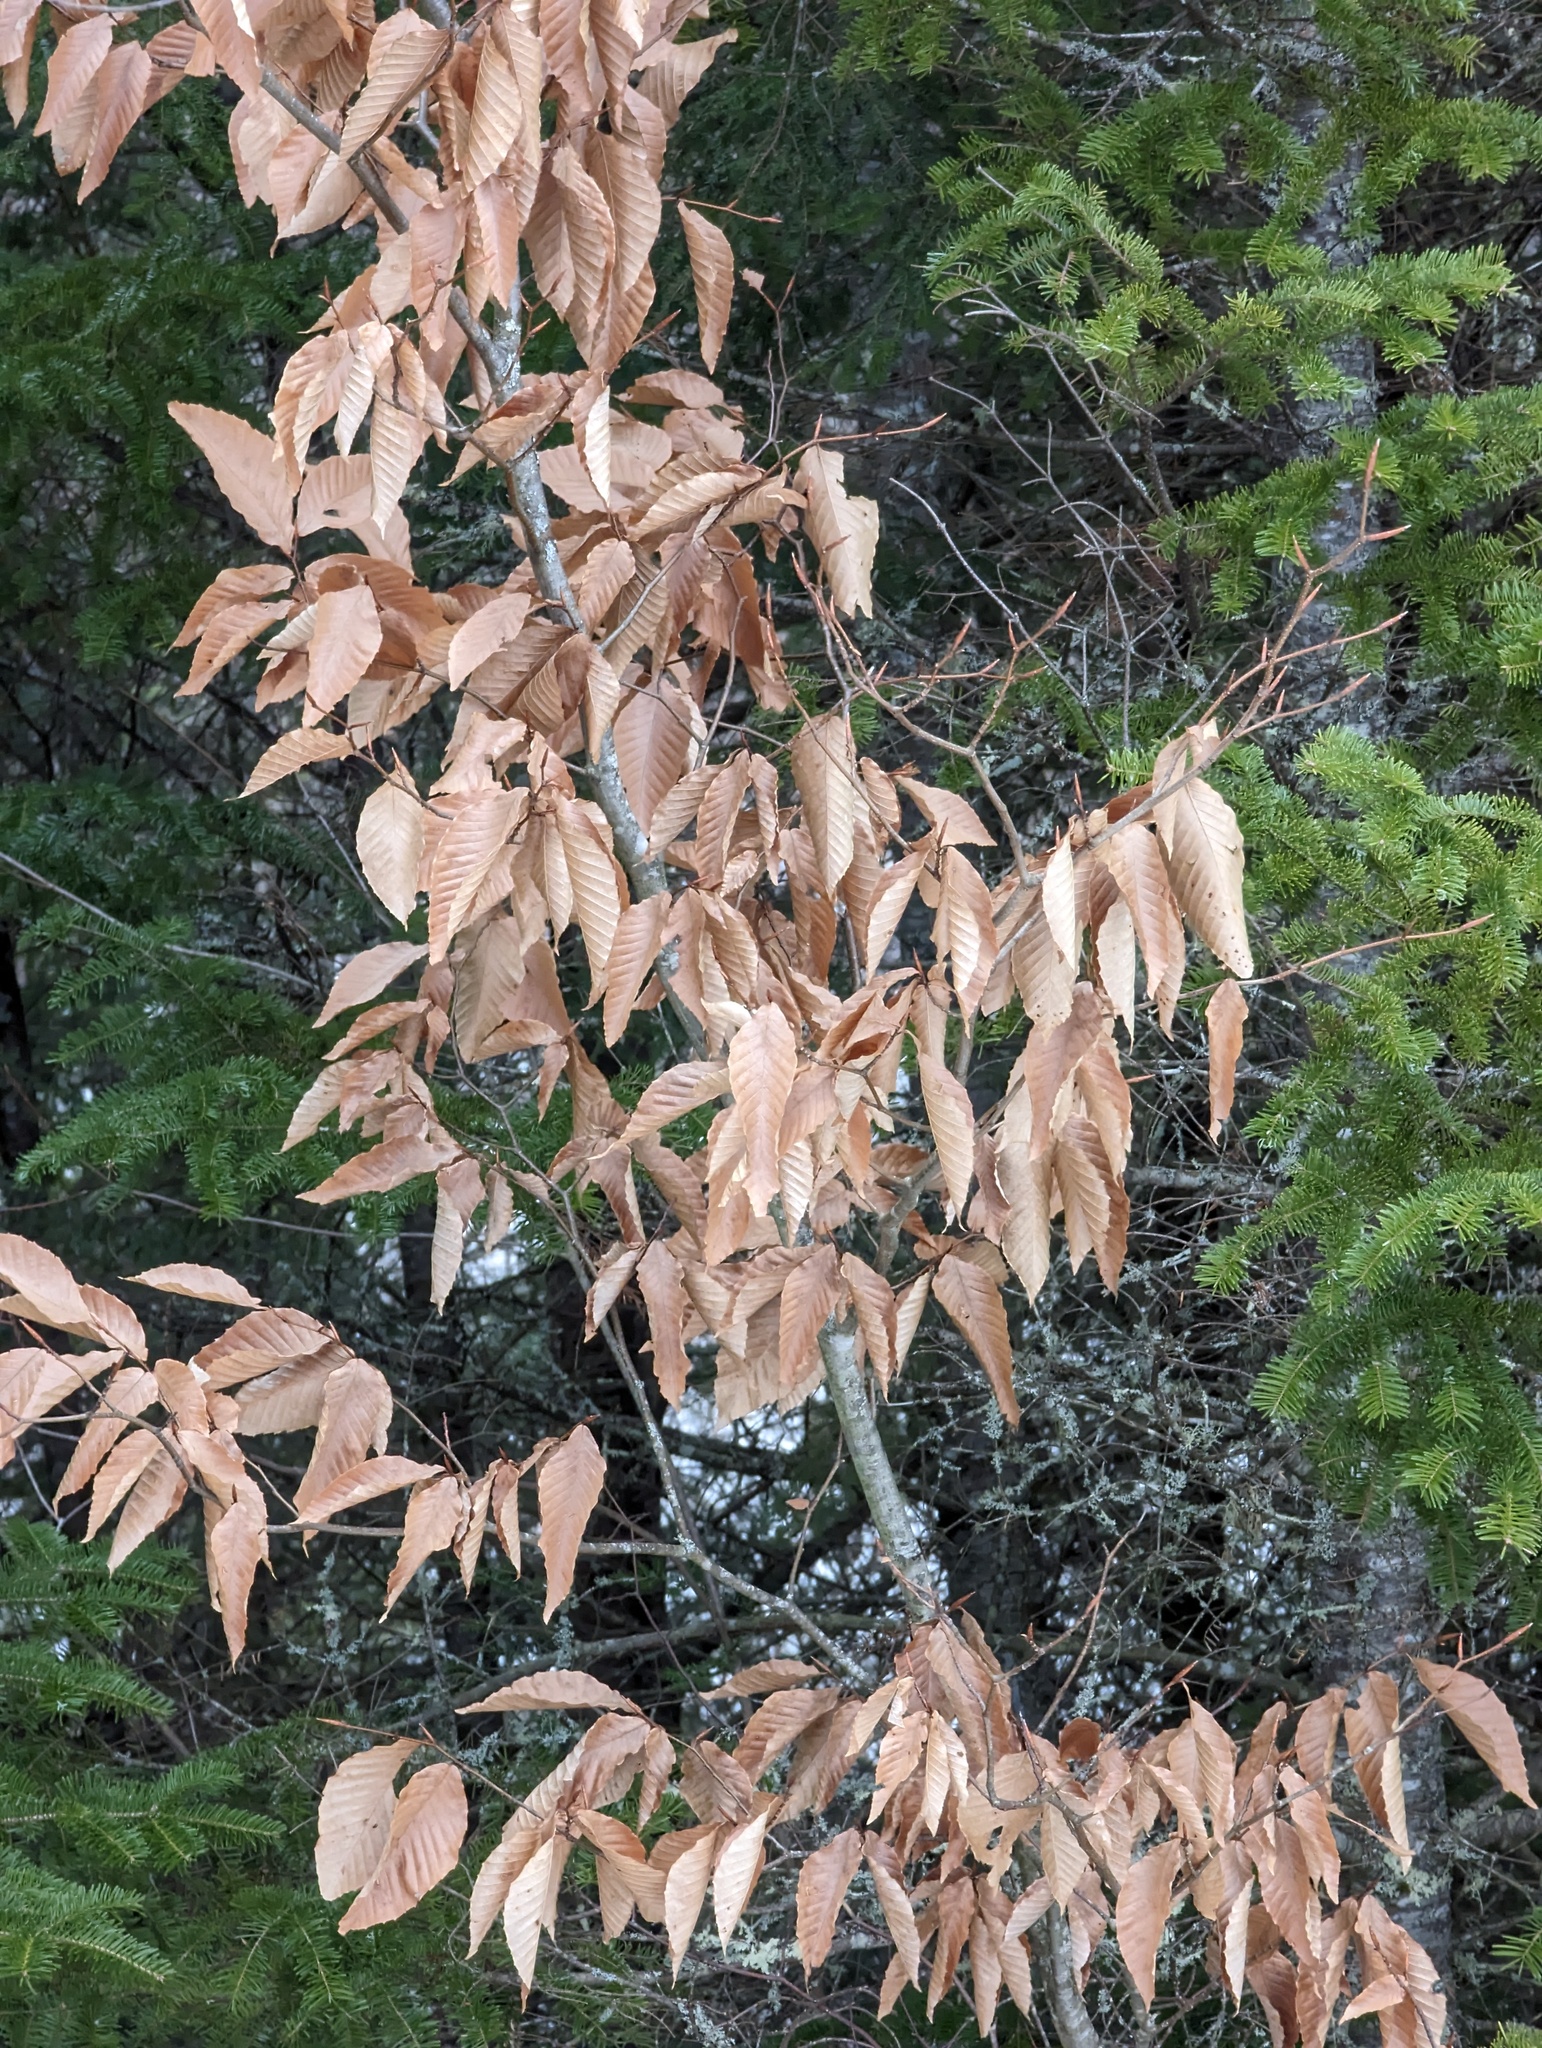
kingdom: Plantae
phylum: Tracheophyta
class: Magnoliopsida
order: Fagales
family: Fagaceae
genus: Fagus
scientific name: Fagus grandifolia
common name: American beech
